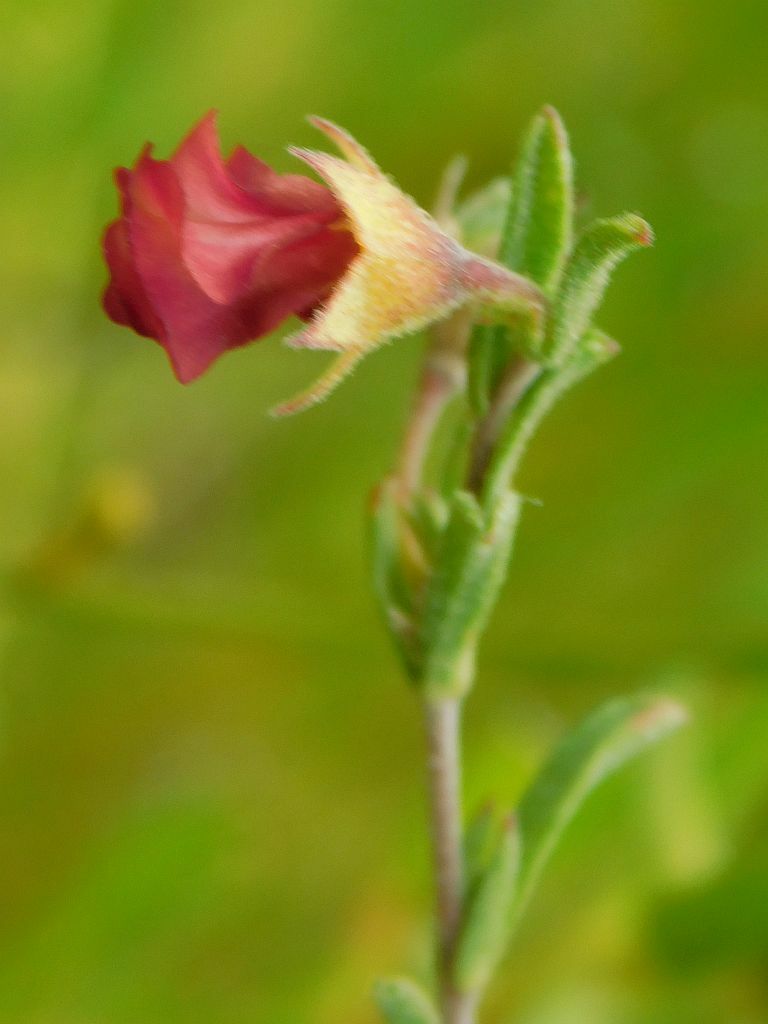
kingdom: Plantae
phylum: Tracheophyta
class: Magnoliopsida
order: Malvales
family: Malvaceae
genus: Hermannia
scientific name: Hermannia flammula
